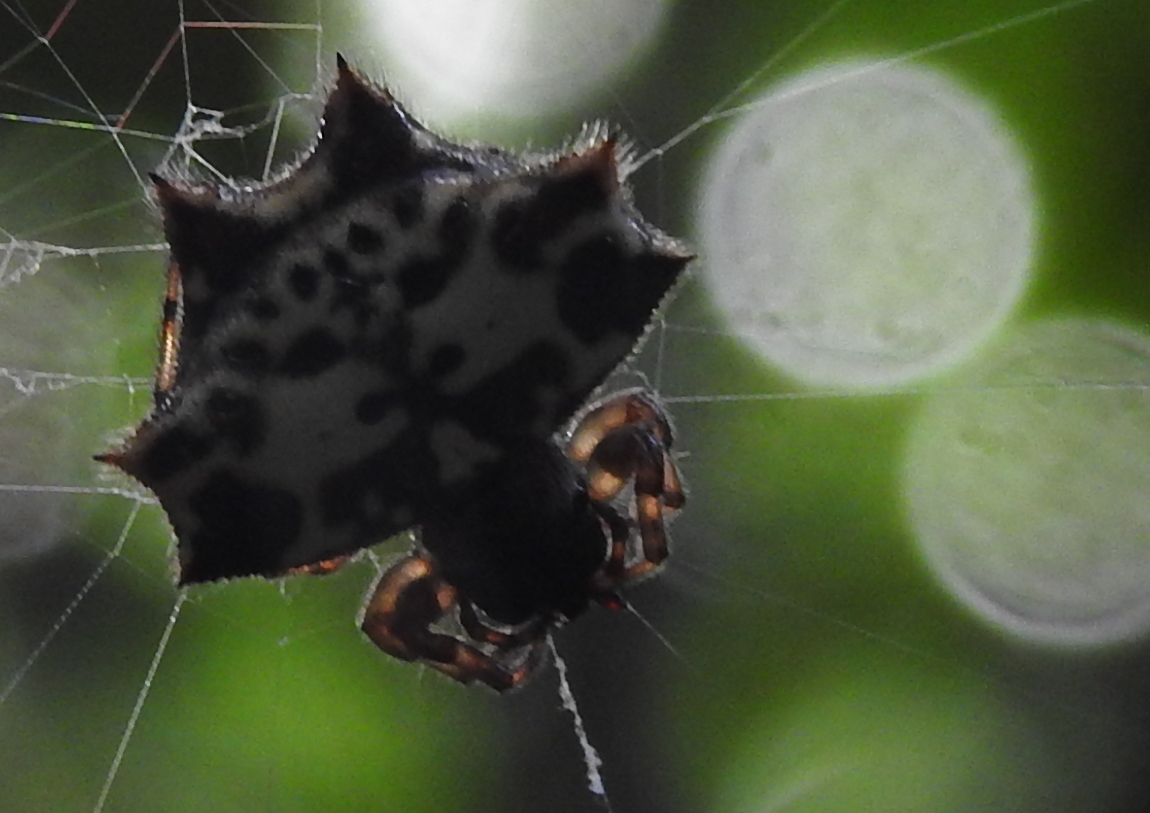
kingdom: Animalia
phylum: Arthropoda
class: Arachnida
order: Araneae
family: Araneidae
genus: Gasteracantha
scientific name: Gasteracantha kuhli
